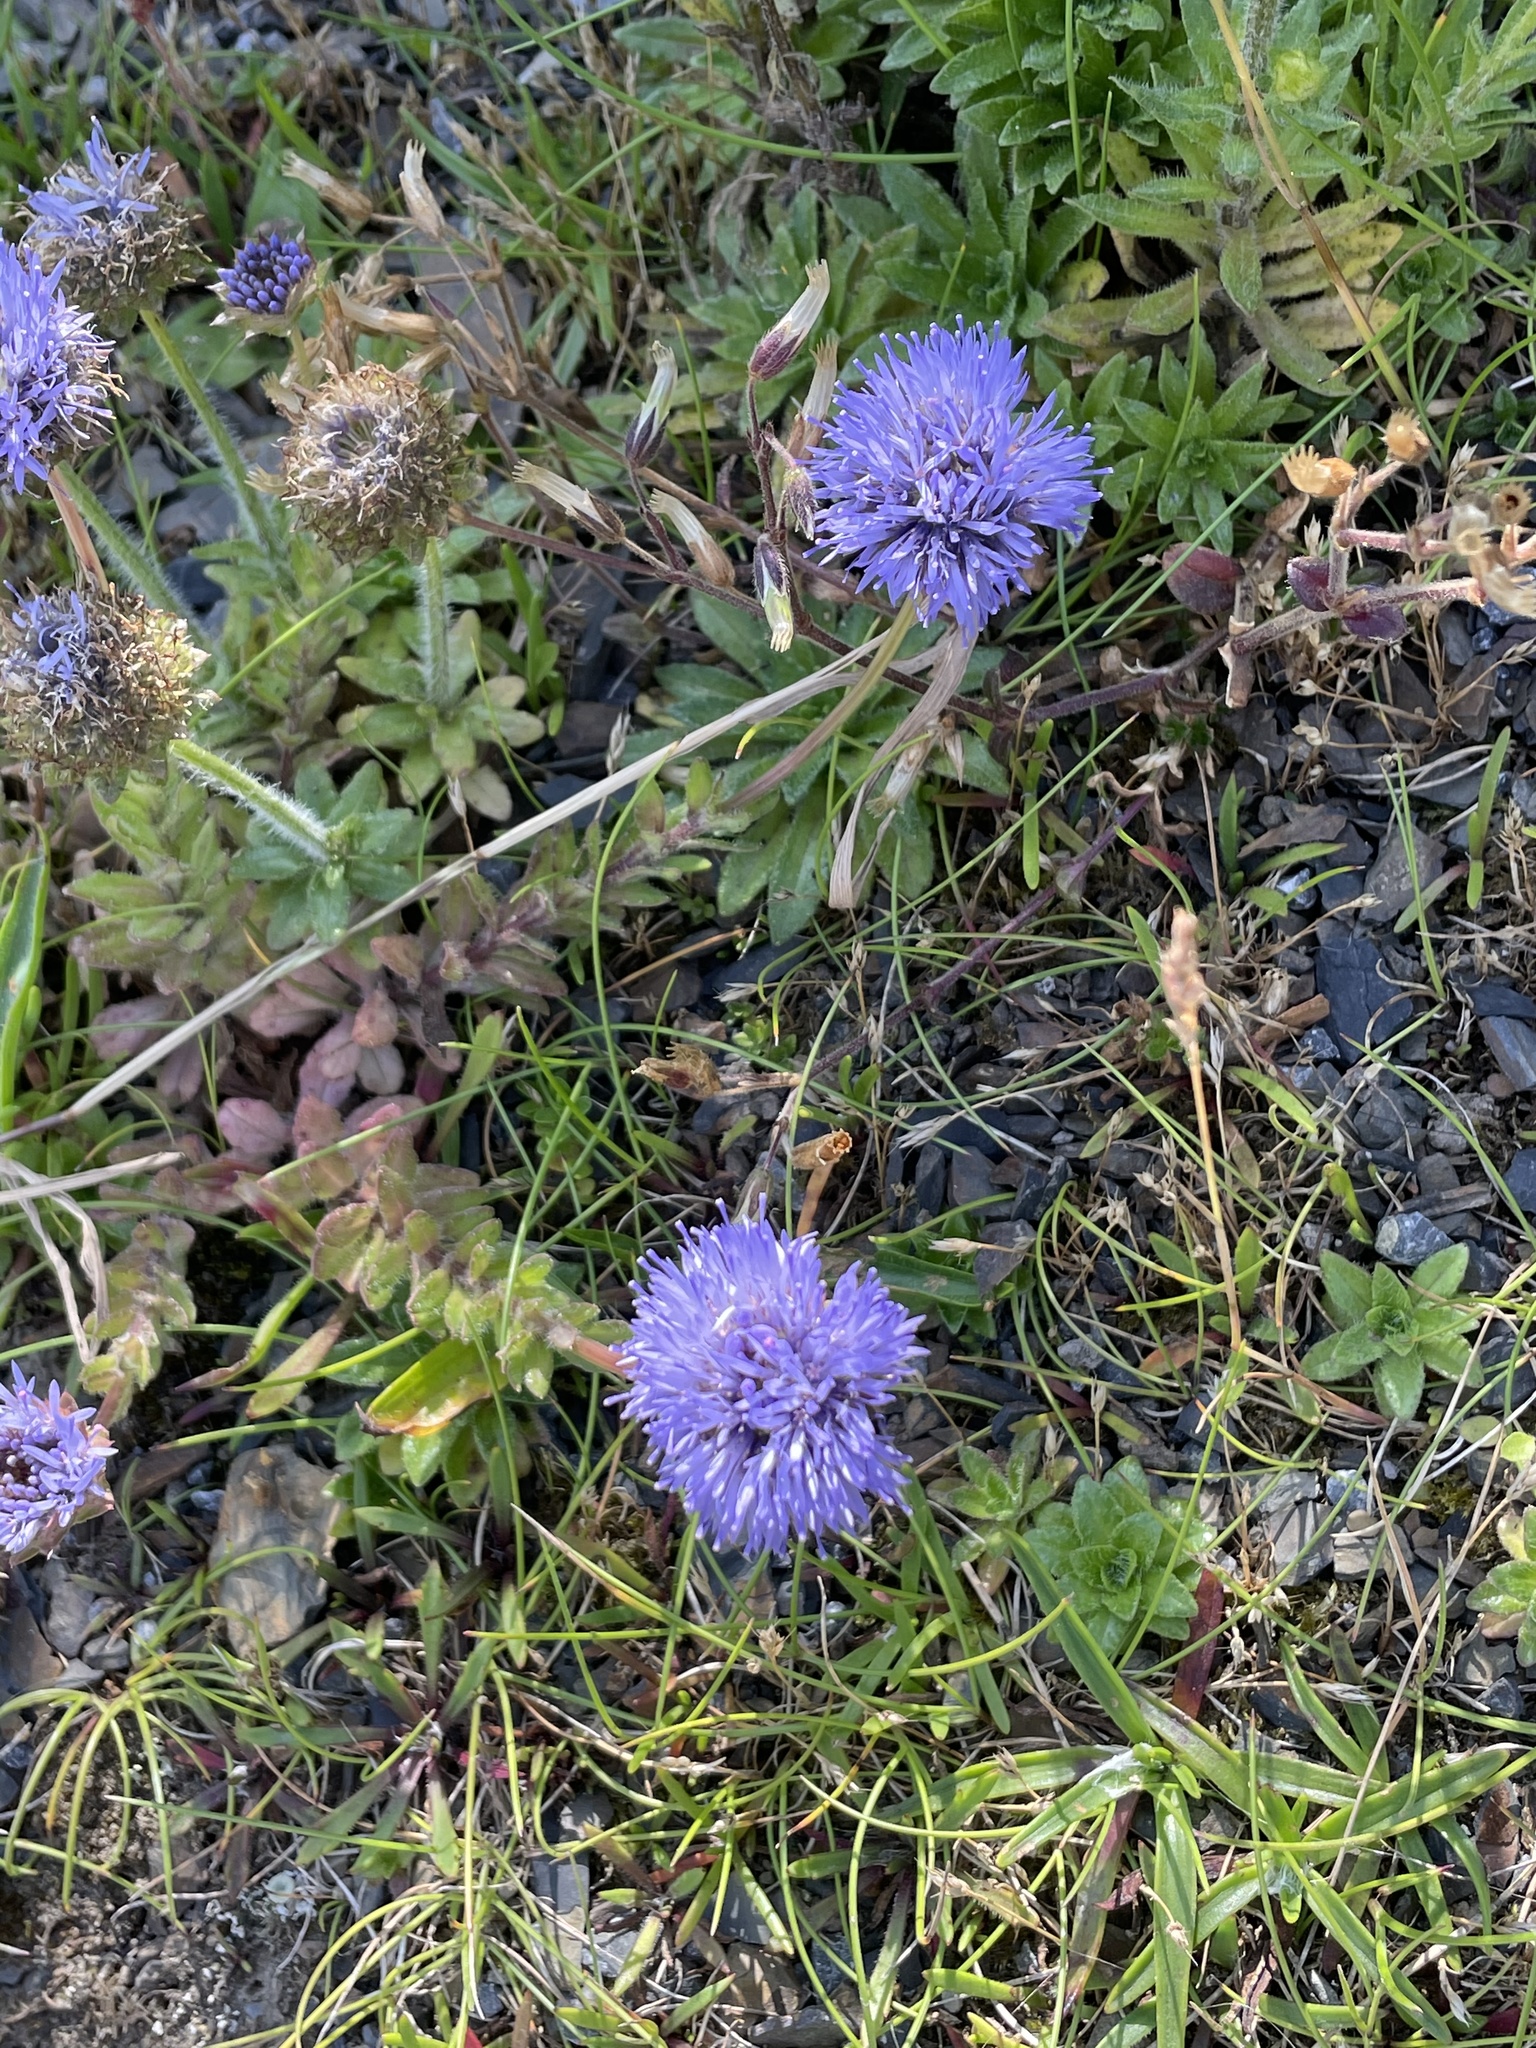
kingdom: Plantae
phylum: Tracheophyta
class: Magnoliopsida
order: Asterales
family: Campanulaceae
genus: Jasione
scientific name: Jasione montana
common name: Sheep's-bit
